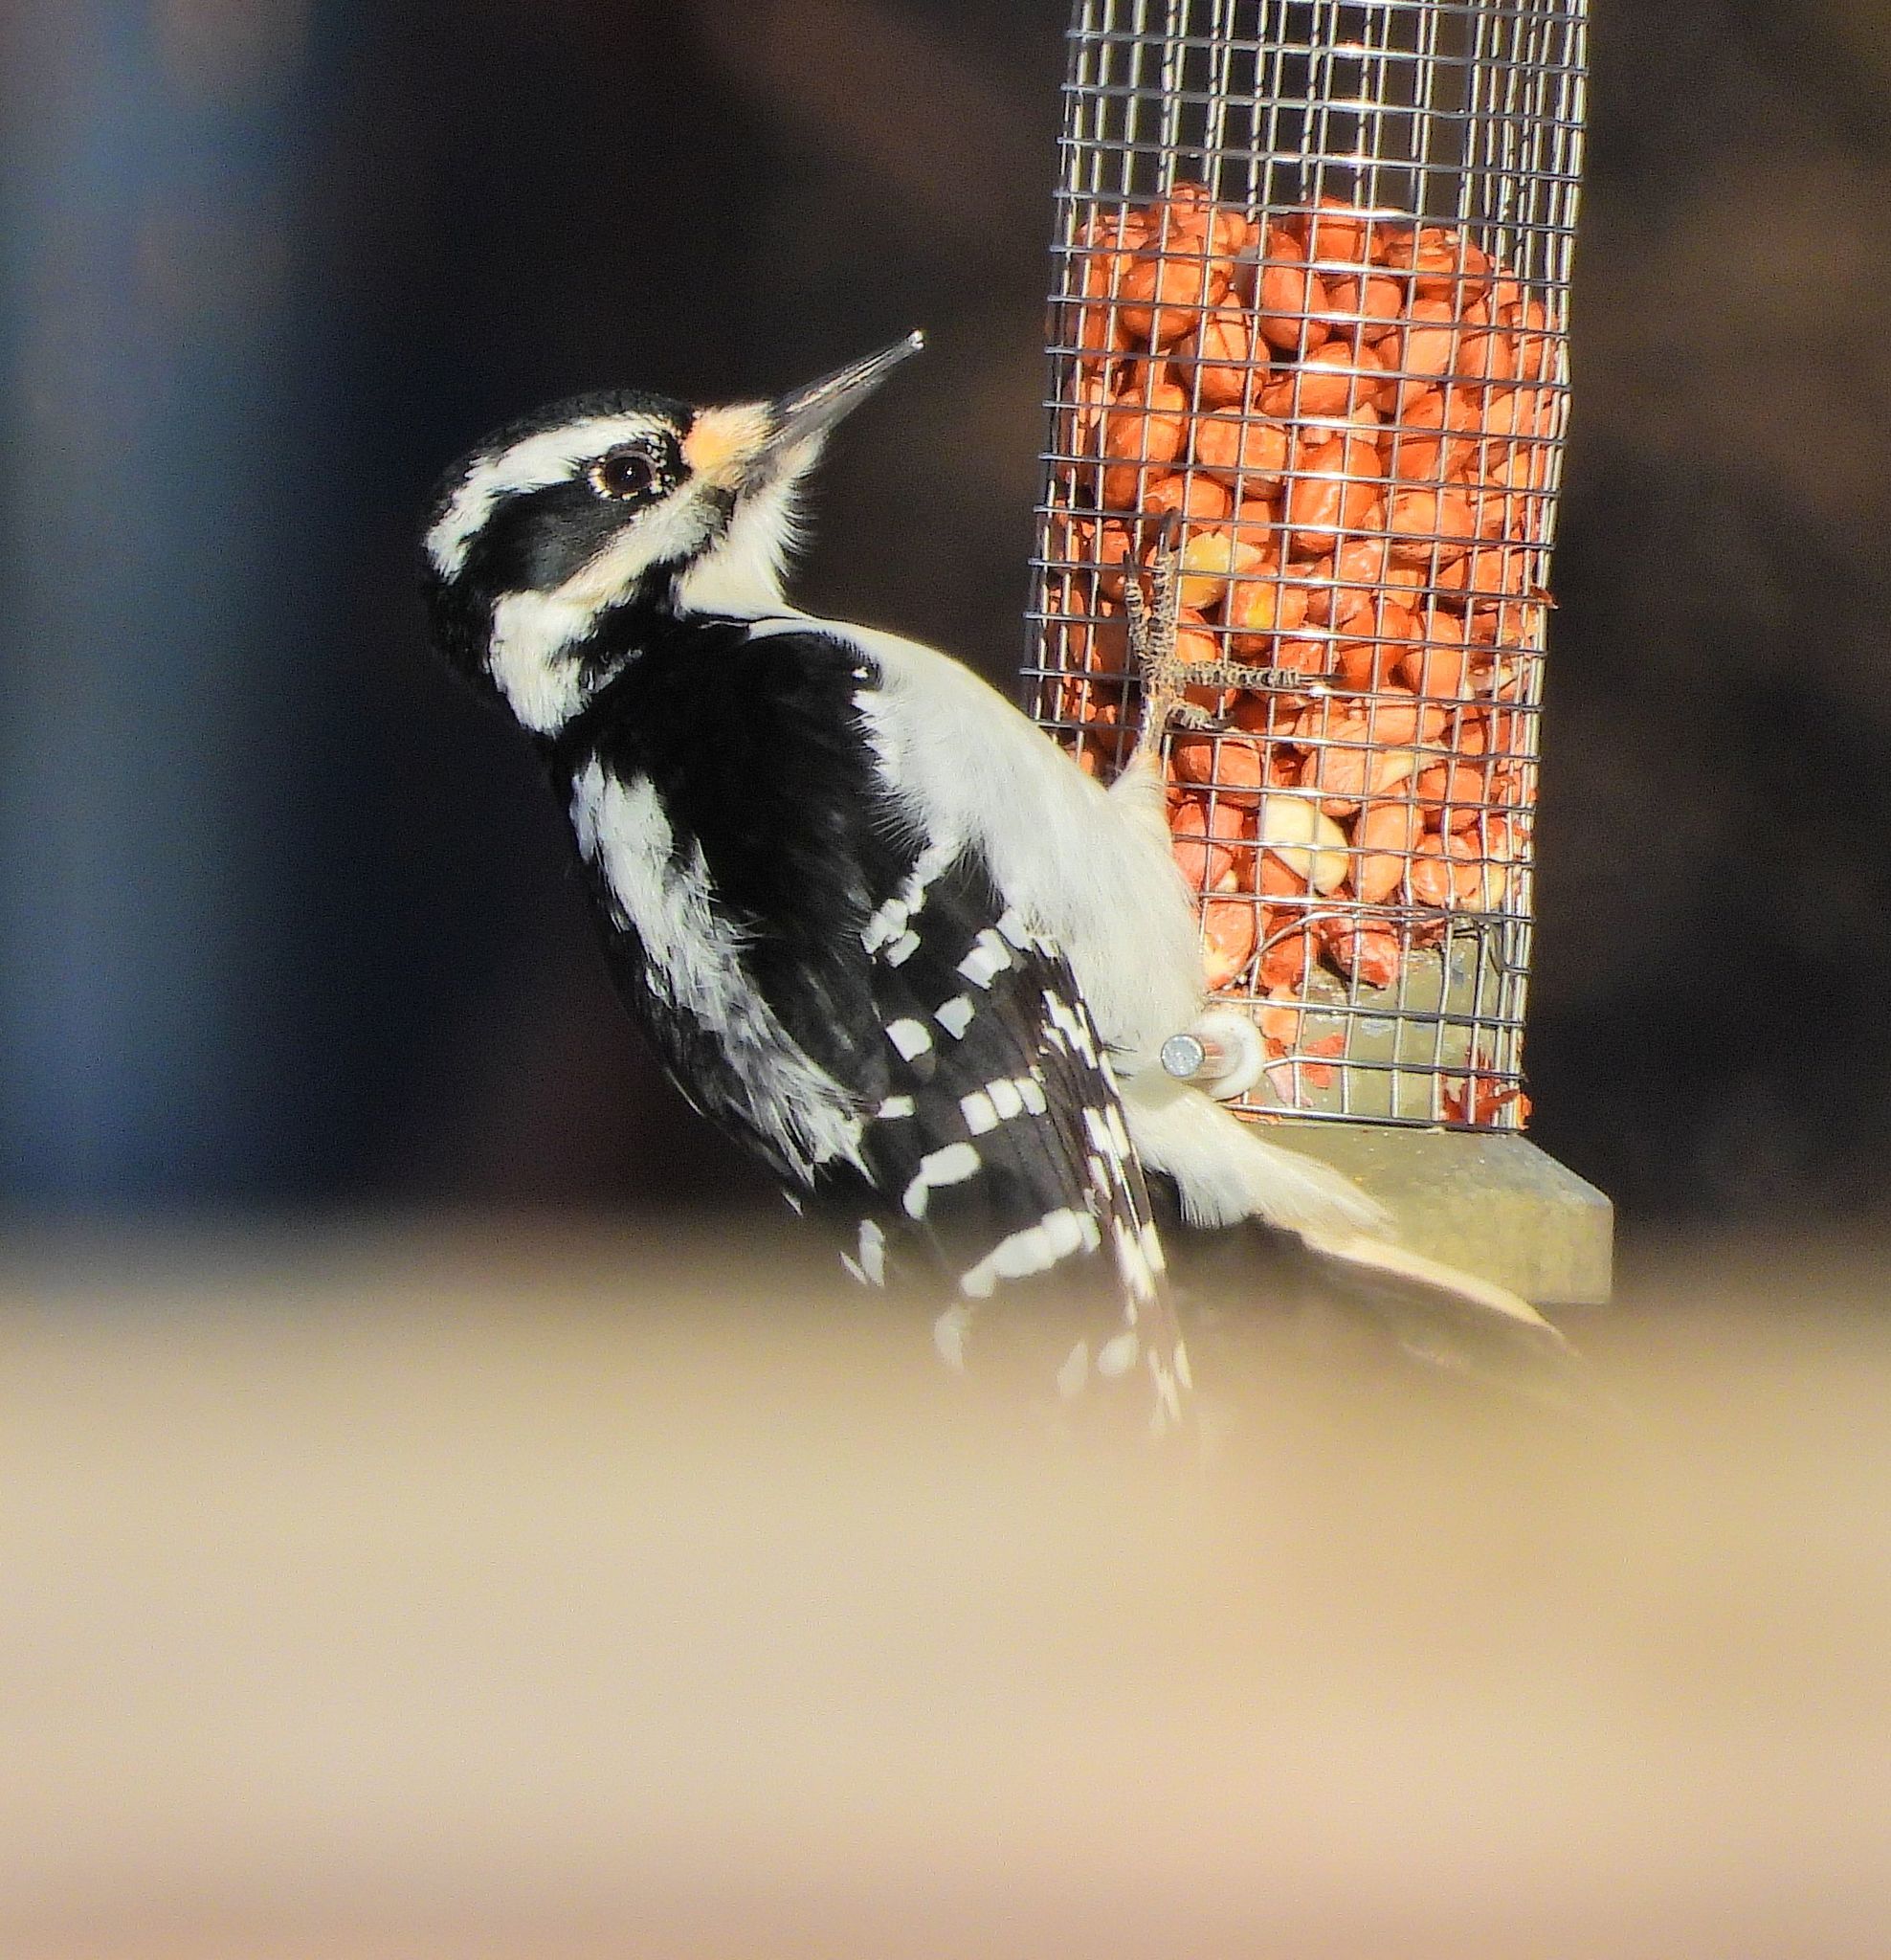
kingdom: Animalia
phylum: Chordata
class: Aves
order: Piciformes
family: Picidae
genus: Leuconotopicus
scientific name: Leuconotopicus villosus
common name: Hairy woodpecker
